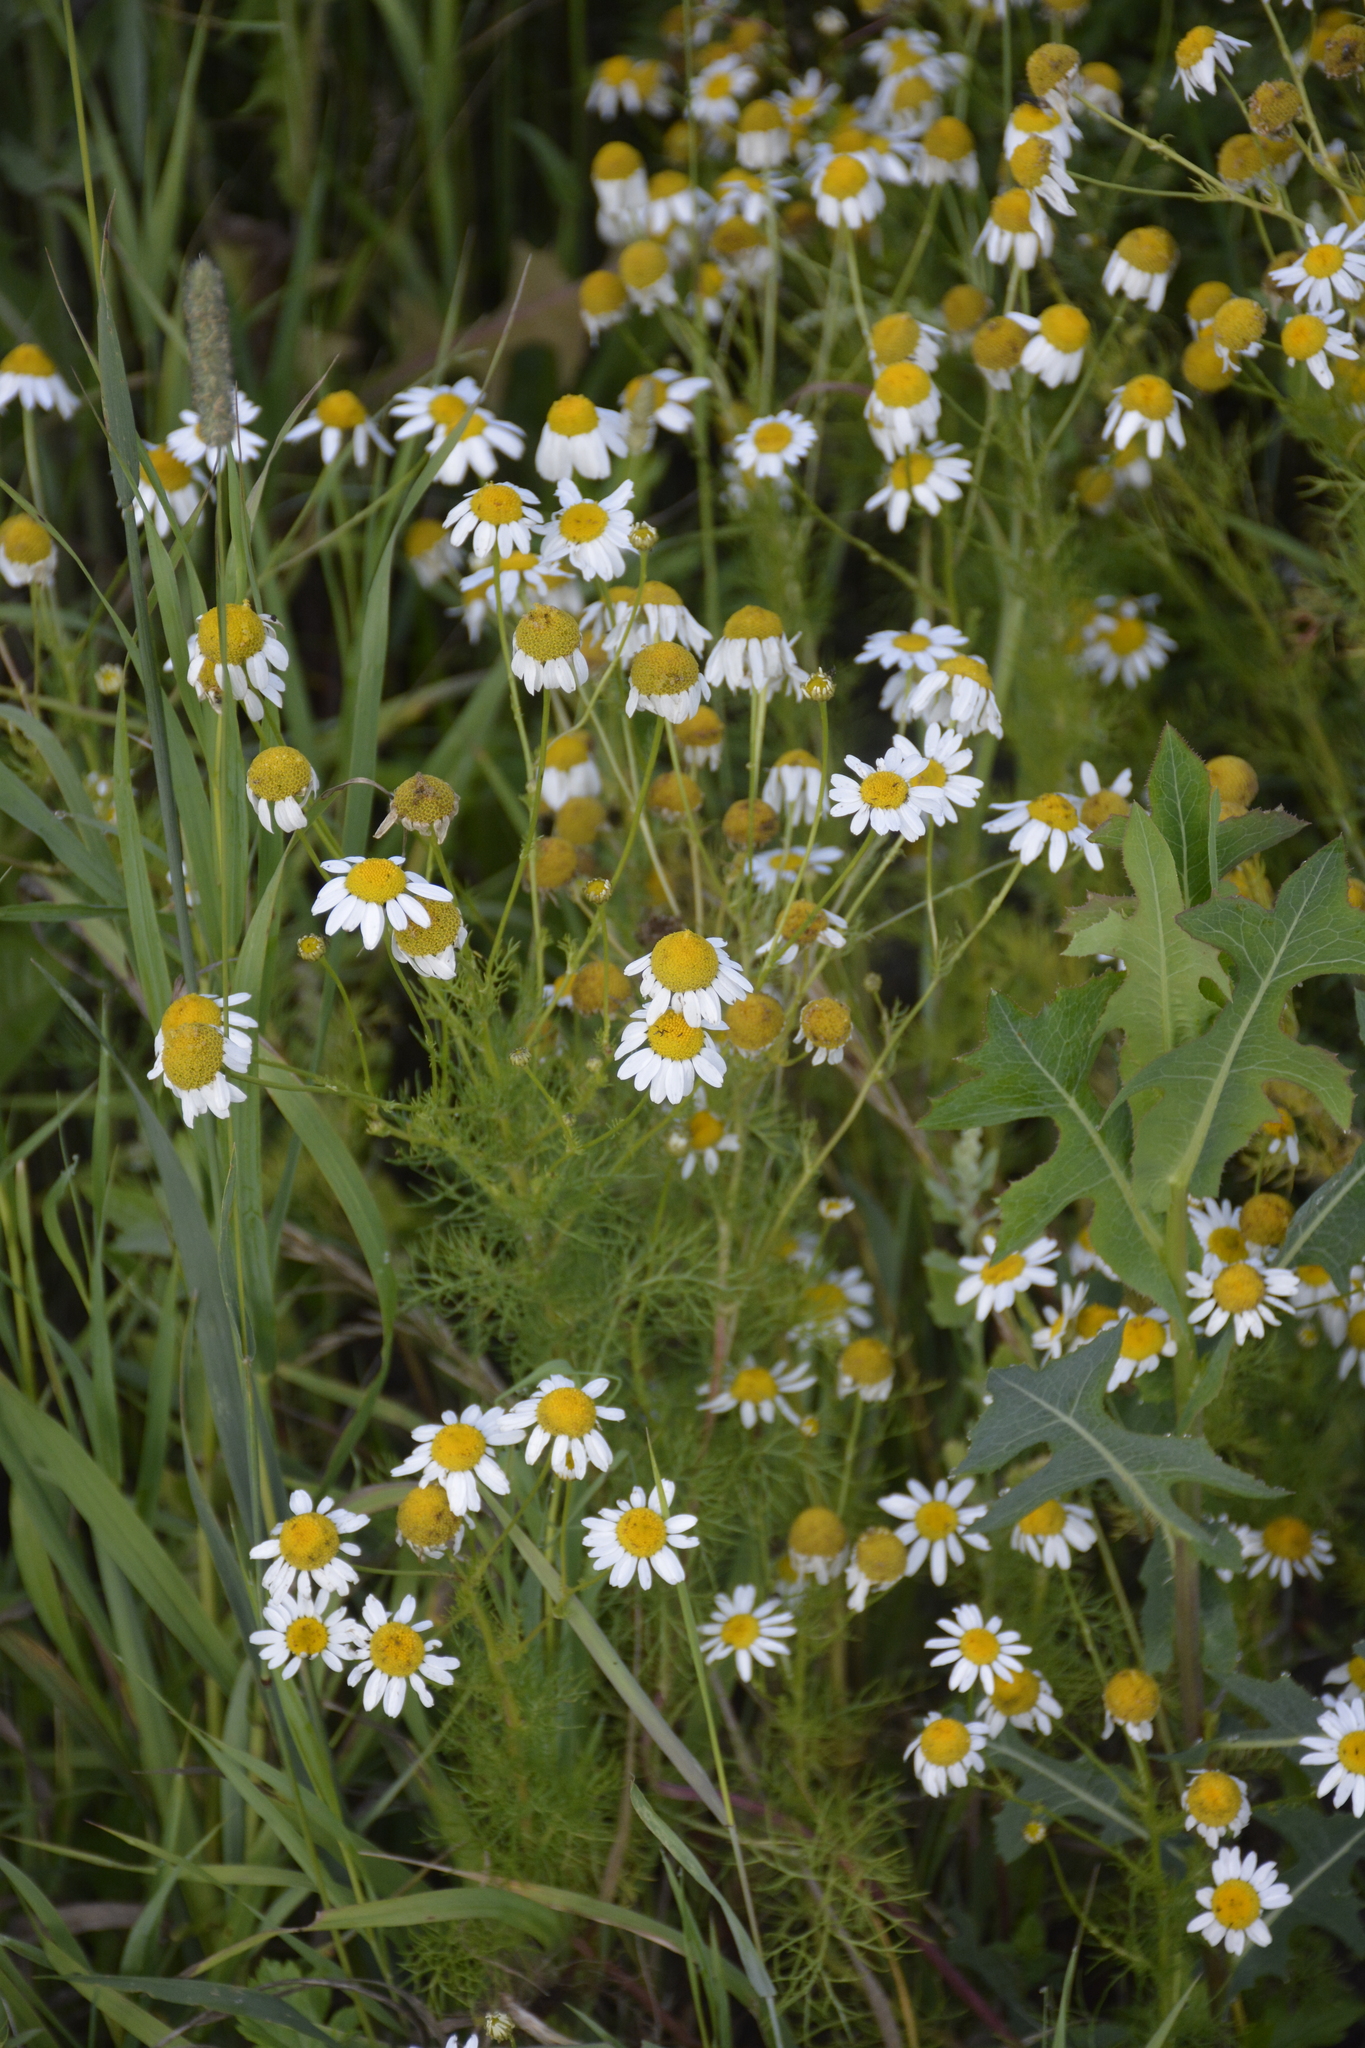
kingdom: Plantae
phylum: Tracheophyta
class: Magnoliopsida
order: Asterales
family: Asteraceae
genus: Tripleurospermum
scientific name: Tripleurospermum inodorum
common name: Scentless mayweed
